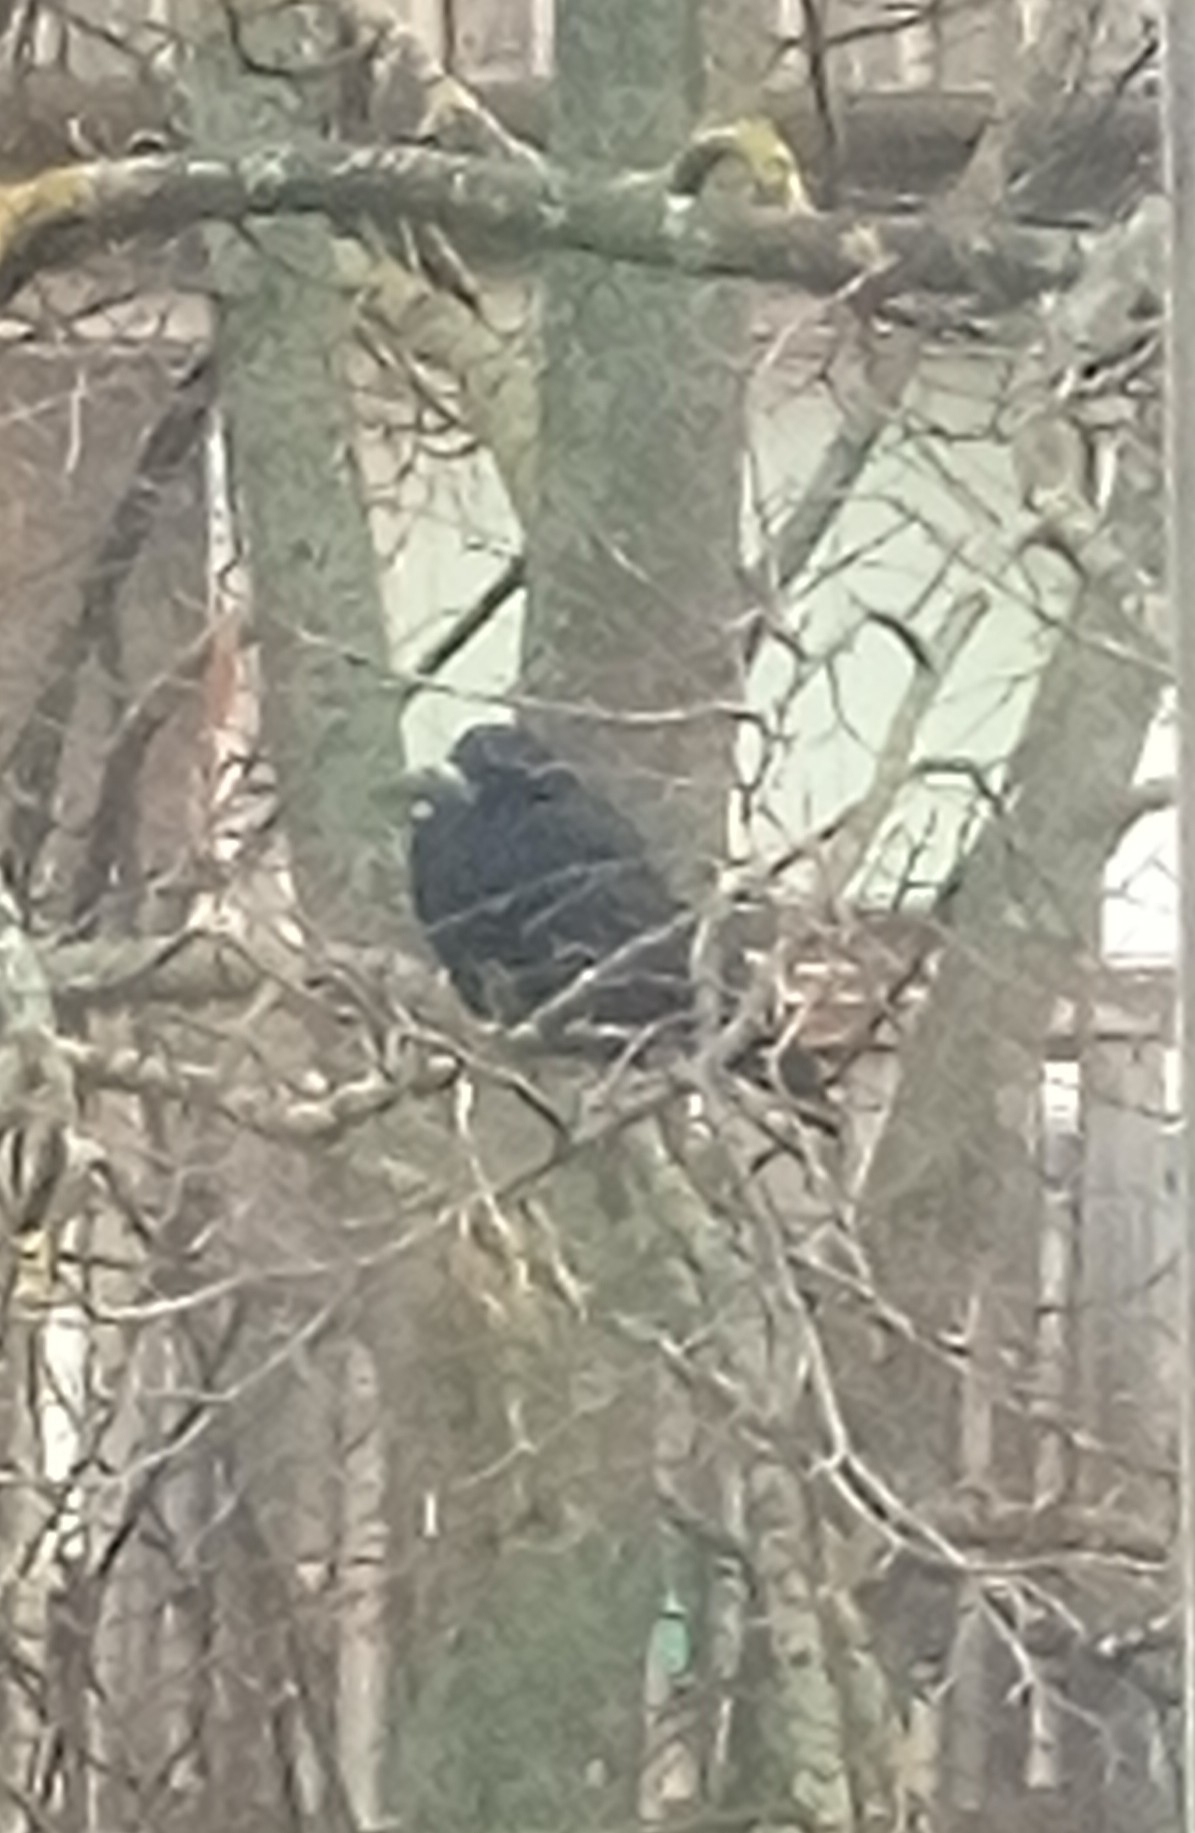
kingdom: Animalia
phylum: Chordata
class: Aves
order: Passeriformes
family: Corvidae
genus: Corvus
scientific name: Corvus frugilegus
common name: Rook
